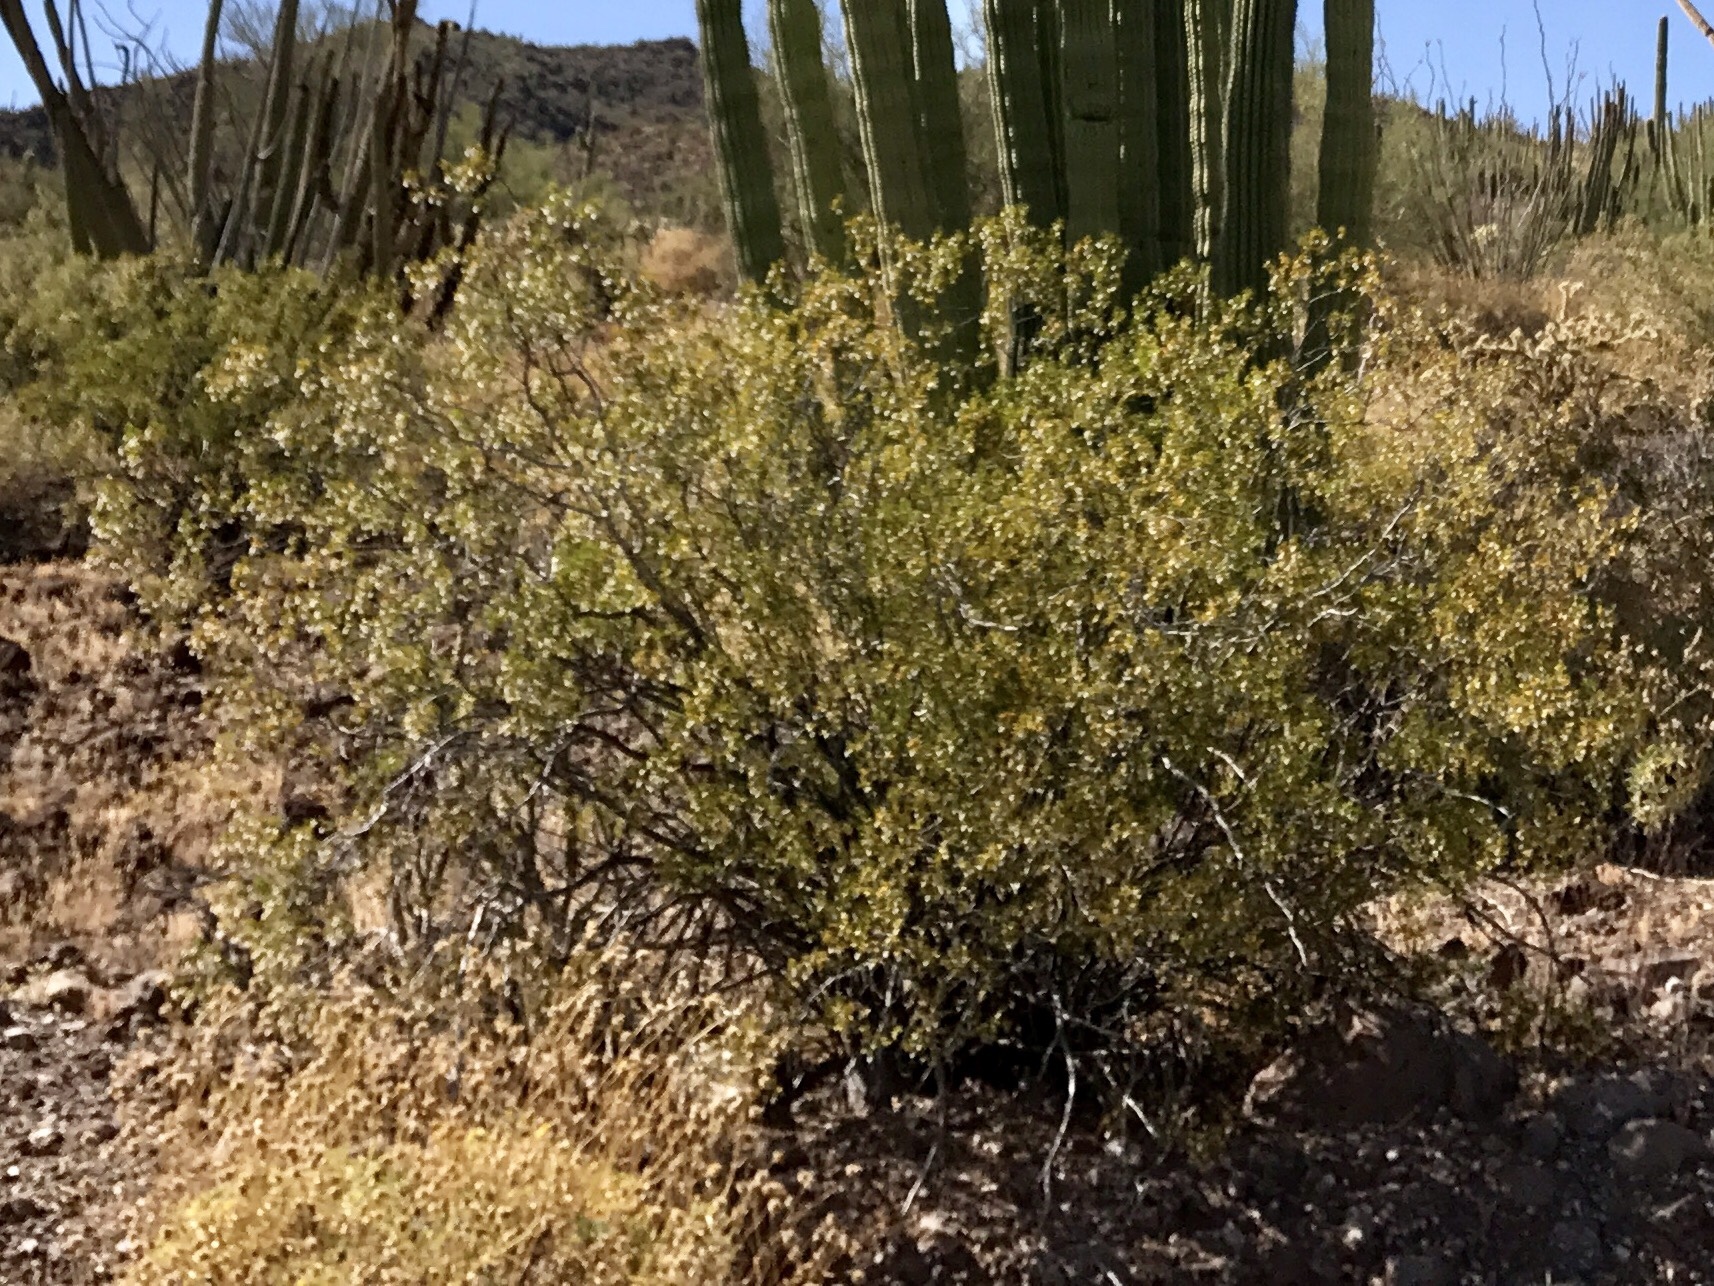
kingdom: Plantae
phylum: Tracheophyta
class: Magnoliopsida
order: Zygophyllales
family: Zygophyllaceae
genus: Larrea
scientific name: Larrea tridentata
